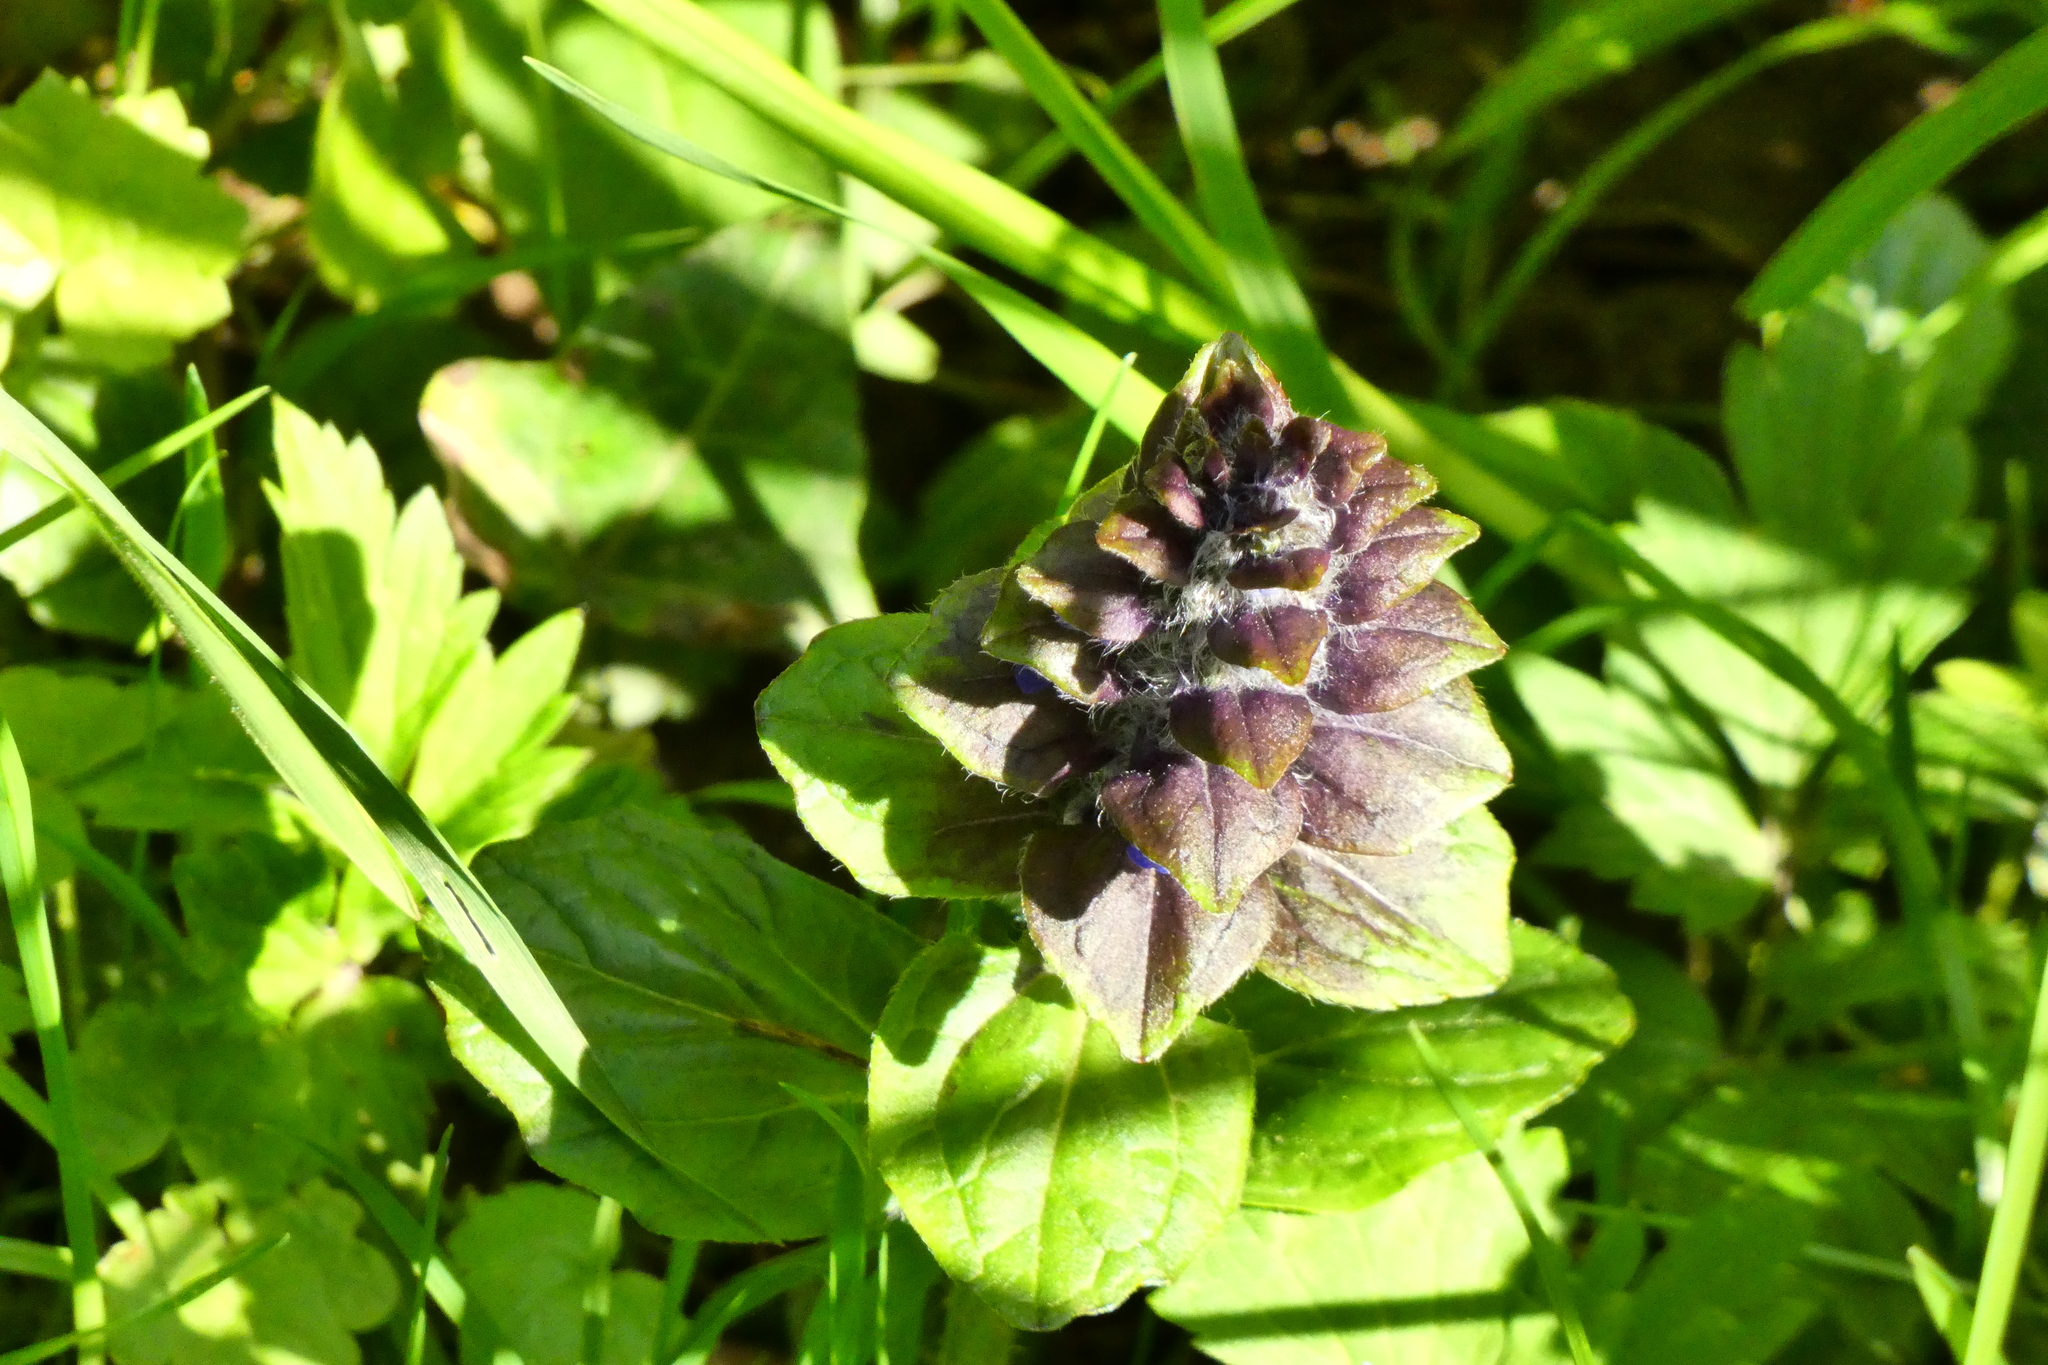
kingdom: Plantae
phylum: Tracheophyta
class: Magnoliopsida
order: Lamiales
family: Lamiaceae
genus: Ajuga
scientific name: Ajuga reptans
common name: Bugle
